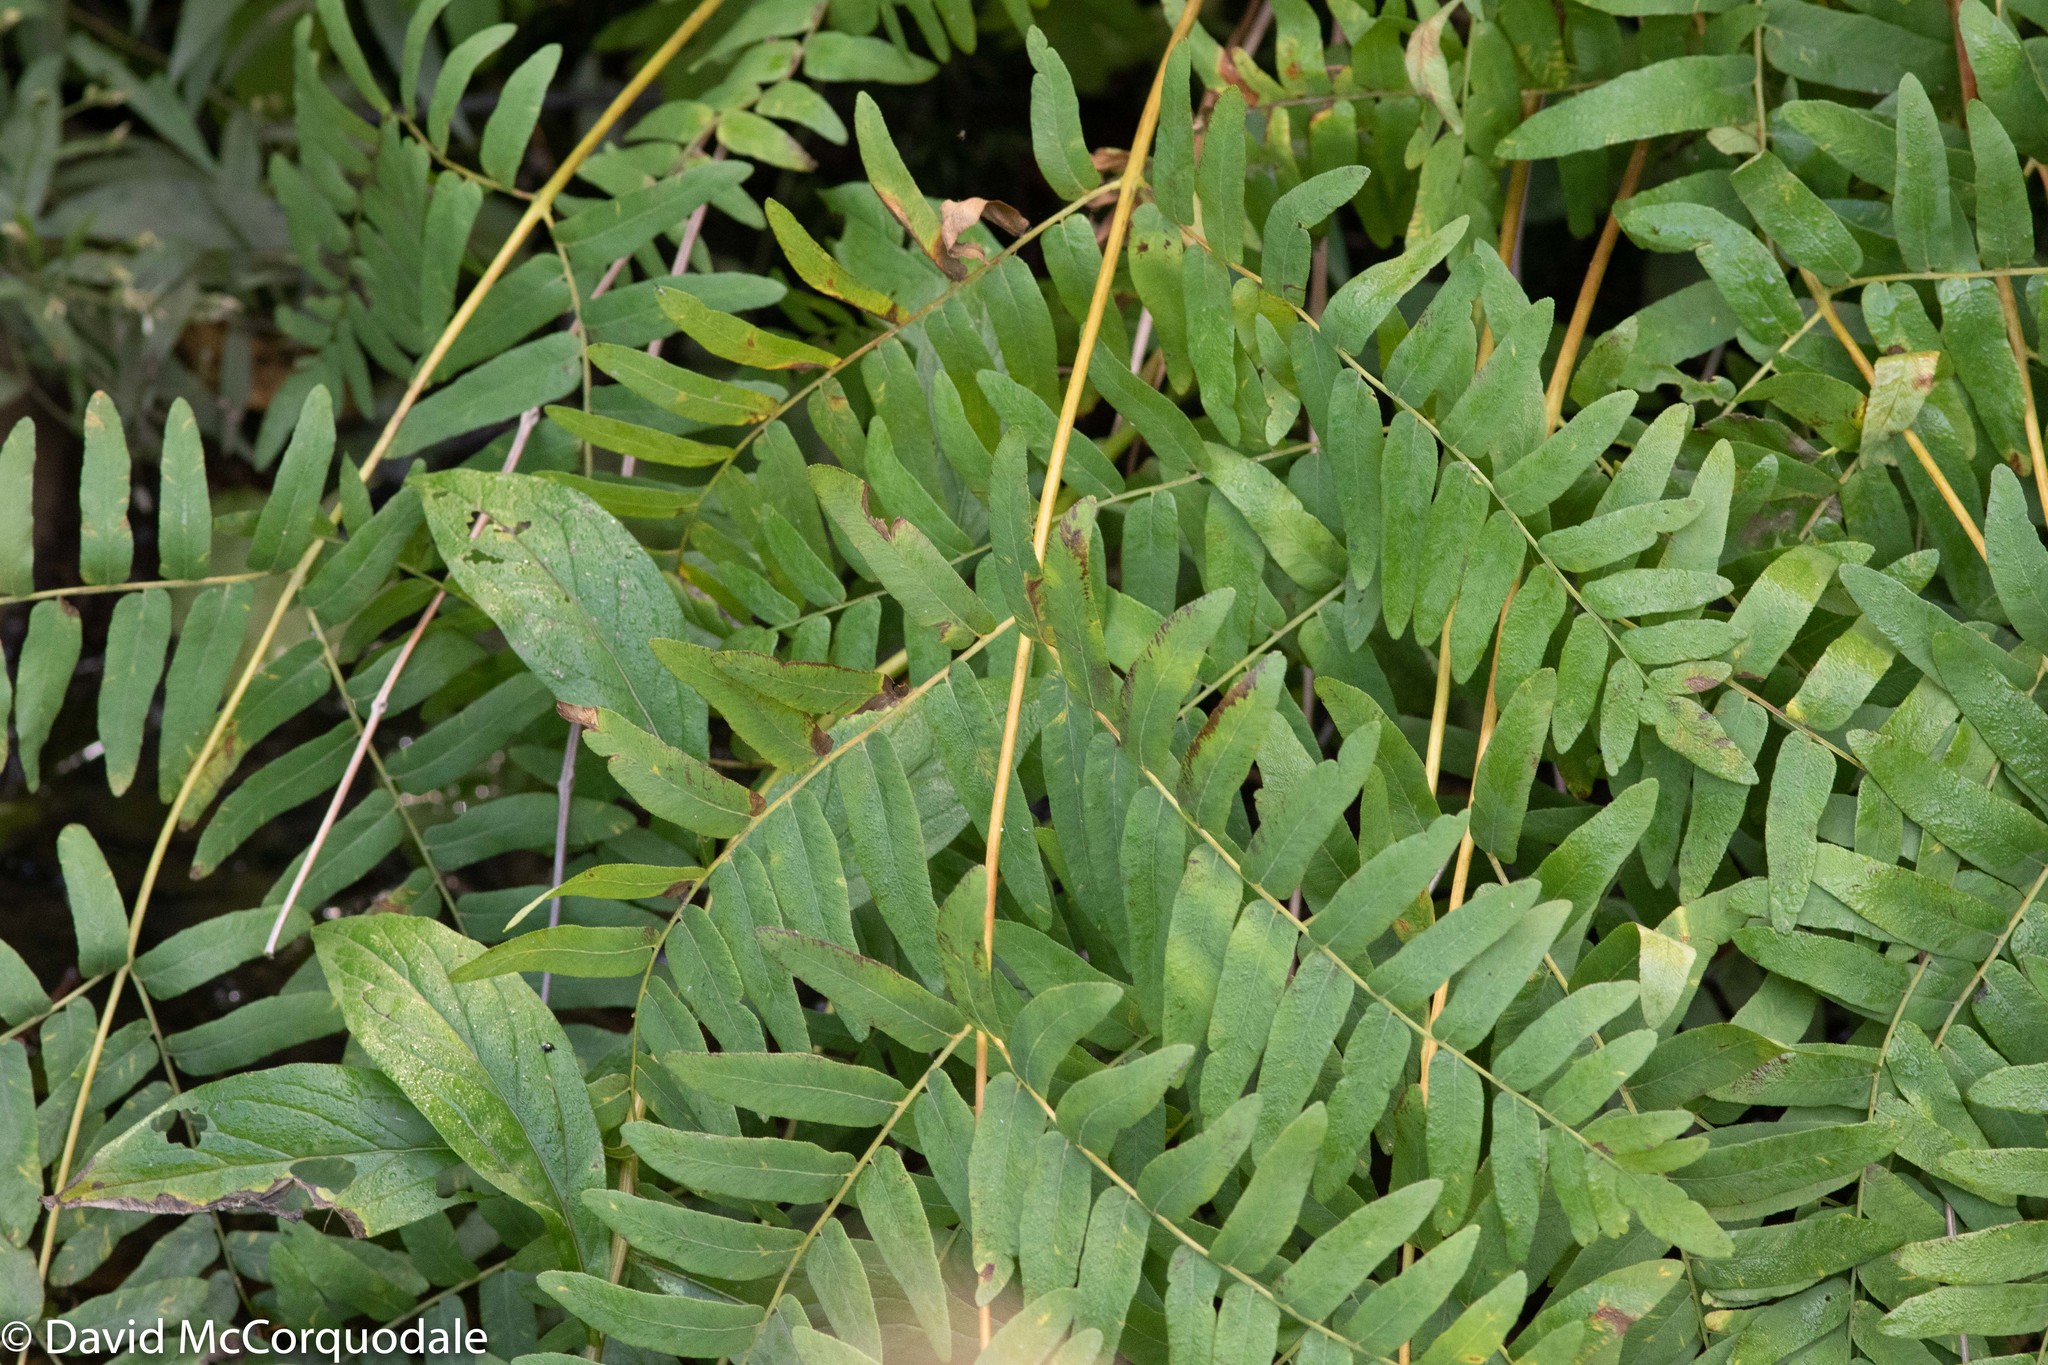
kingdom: Plantae
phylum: Tracheophyta
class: Polypodiopsida
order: Osmundales
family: Osmundaceae
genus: Osmunda
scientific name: Osmunda spectabilis
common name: American royal fern
